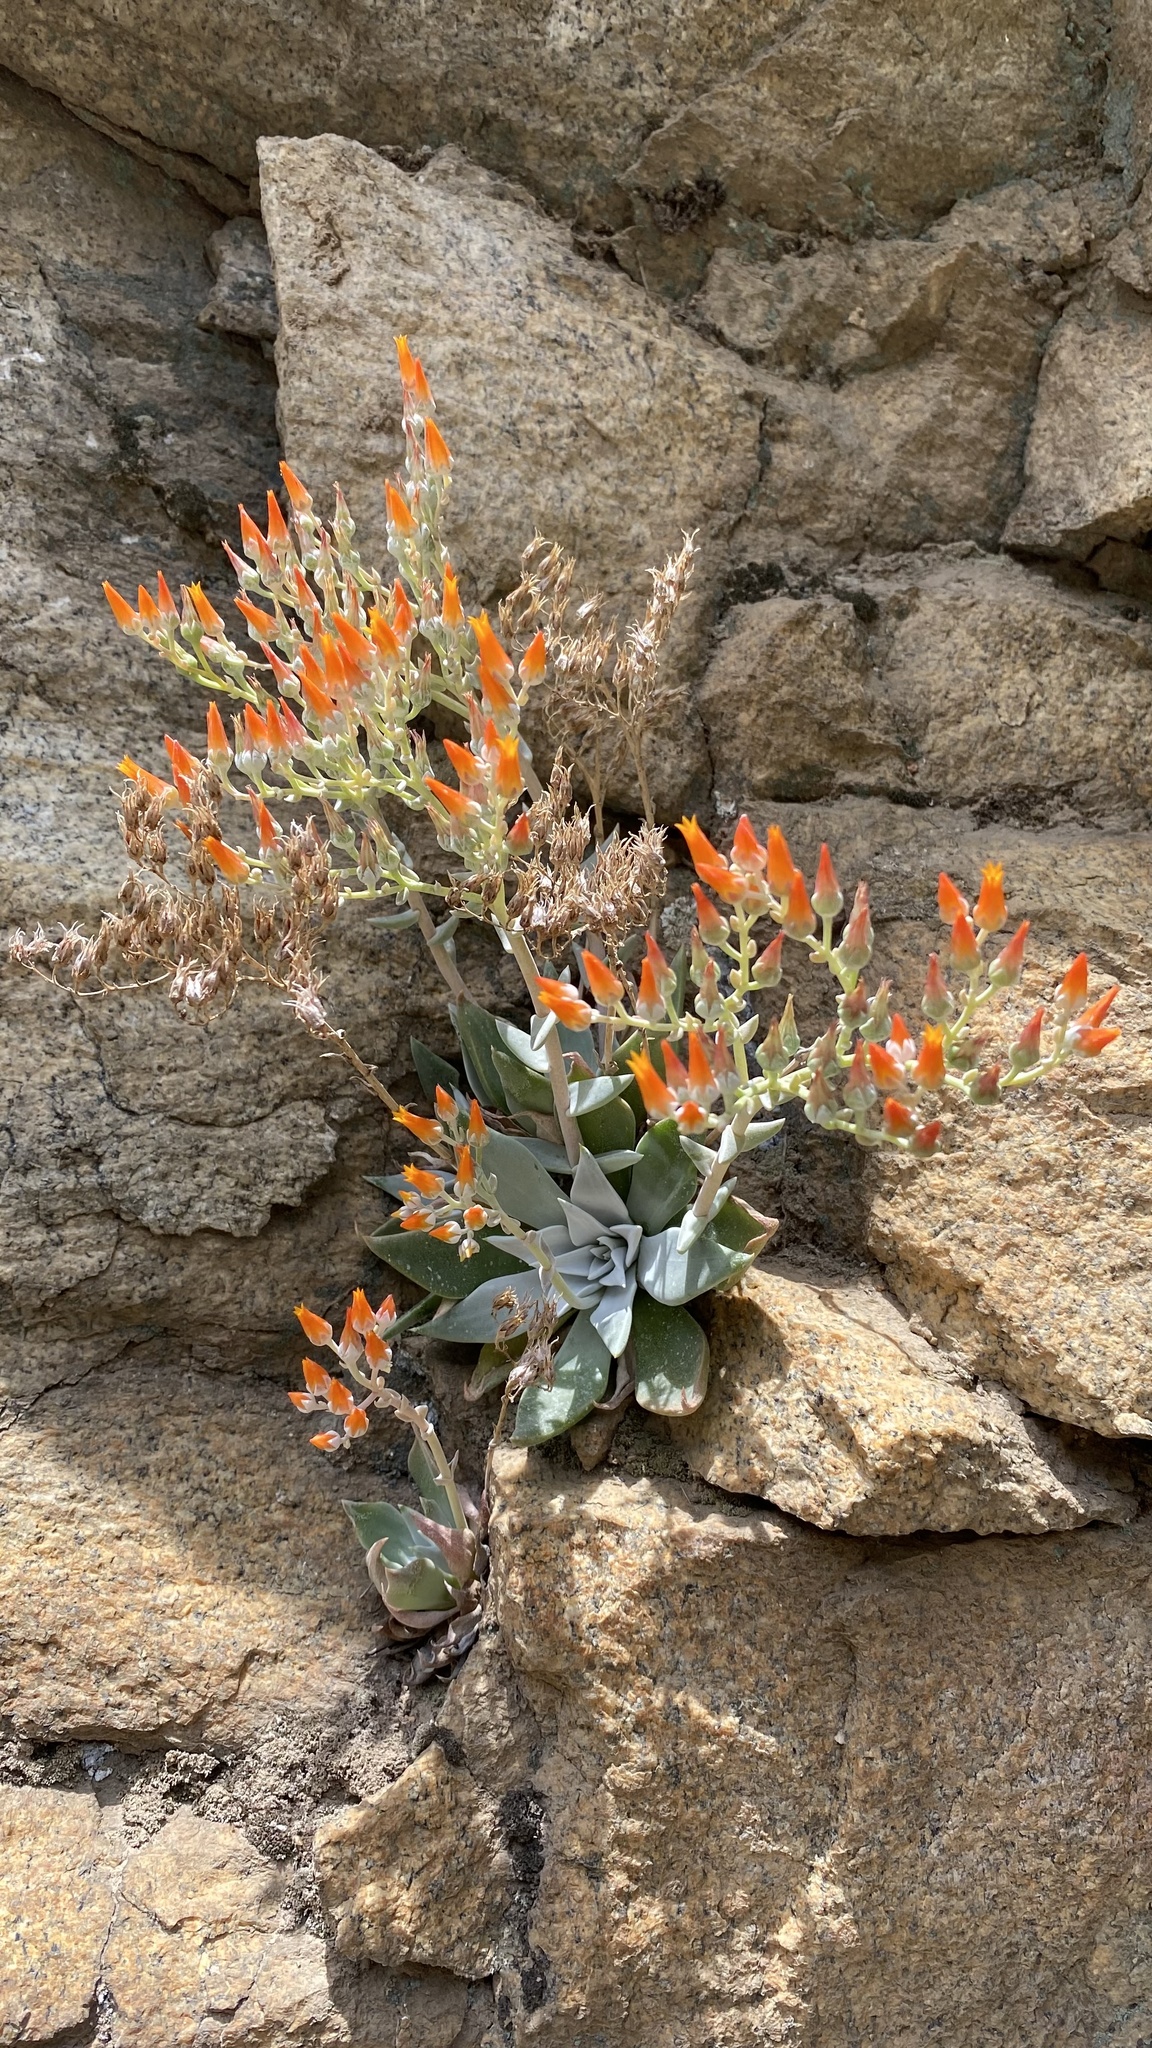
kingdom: Plantae
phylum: Tracheophyta
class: Magnoliopsida
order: Saxifragales
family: Crassulaceae
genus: Dudleya
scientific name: Dudleya cymosa
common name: Canyon dudleya
